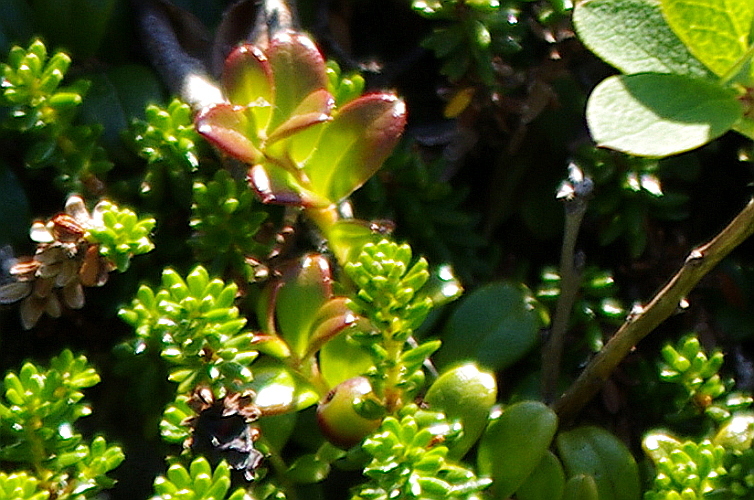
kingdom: Plantae
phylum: Tracheophyta
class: Magnoliopsida
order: Ericales
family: Ericaceae
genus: Vaccinium
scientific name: Vaccinium vitis-idaea
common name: Cowberry
